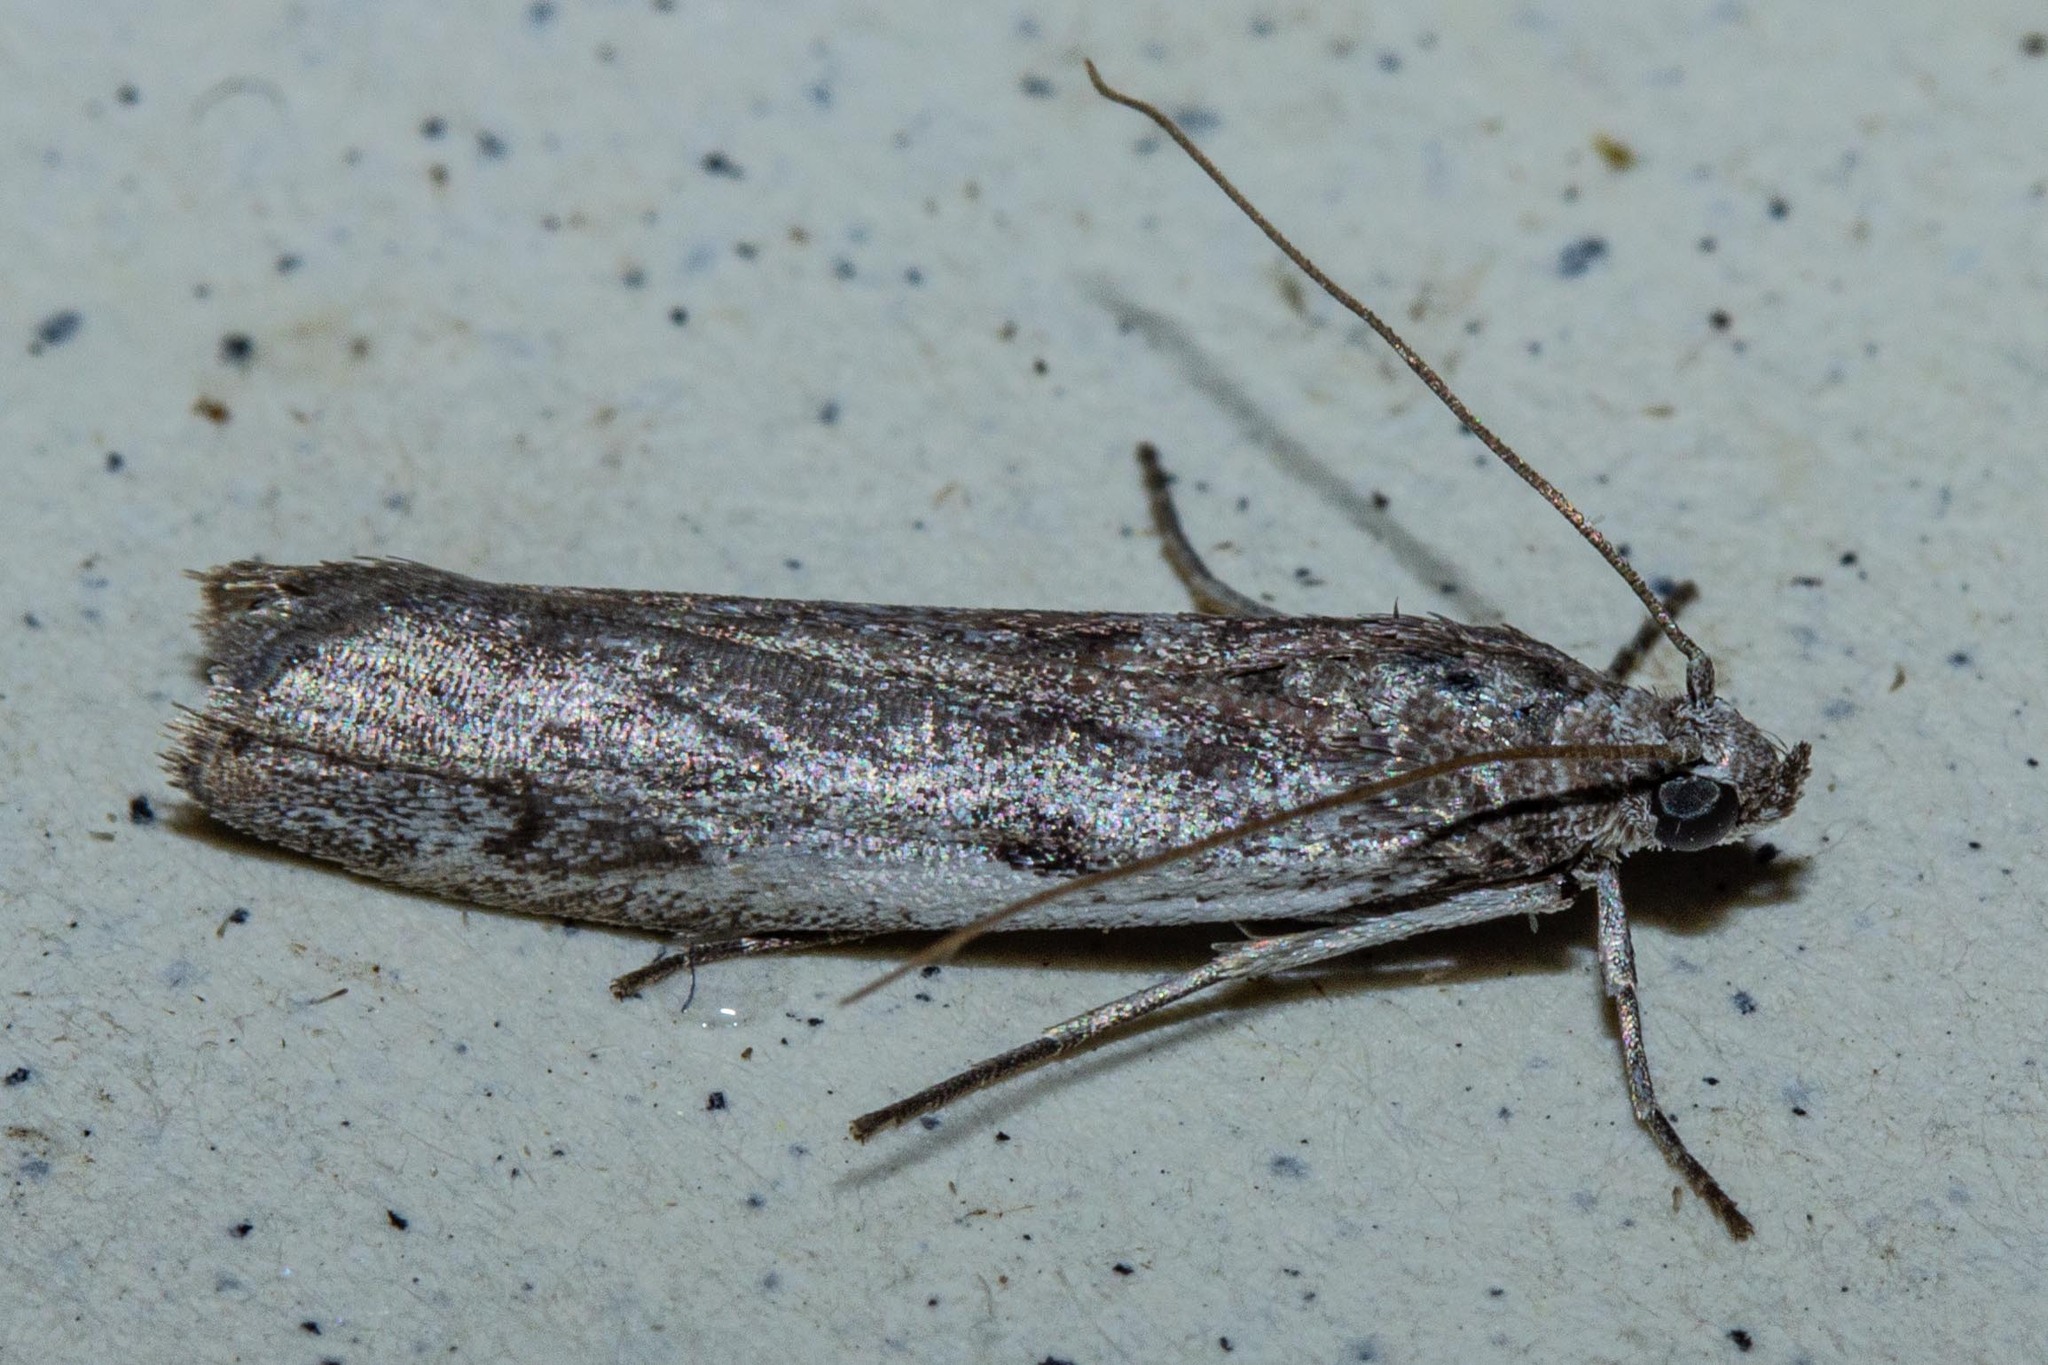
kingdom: Animalia
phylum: Arthropoda
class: Insecta
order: Lepidoptera
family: Pyralidae
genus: Patagoniodes
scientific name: Patagoniodes farinaria
